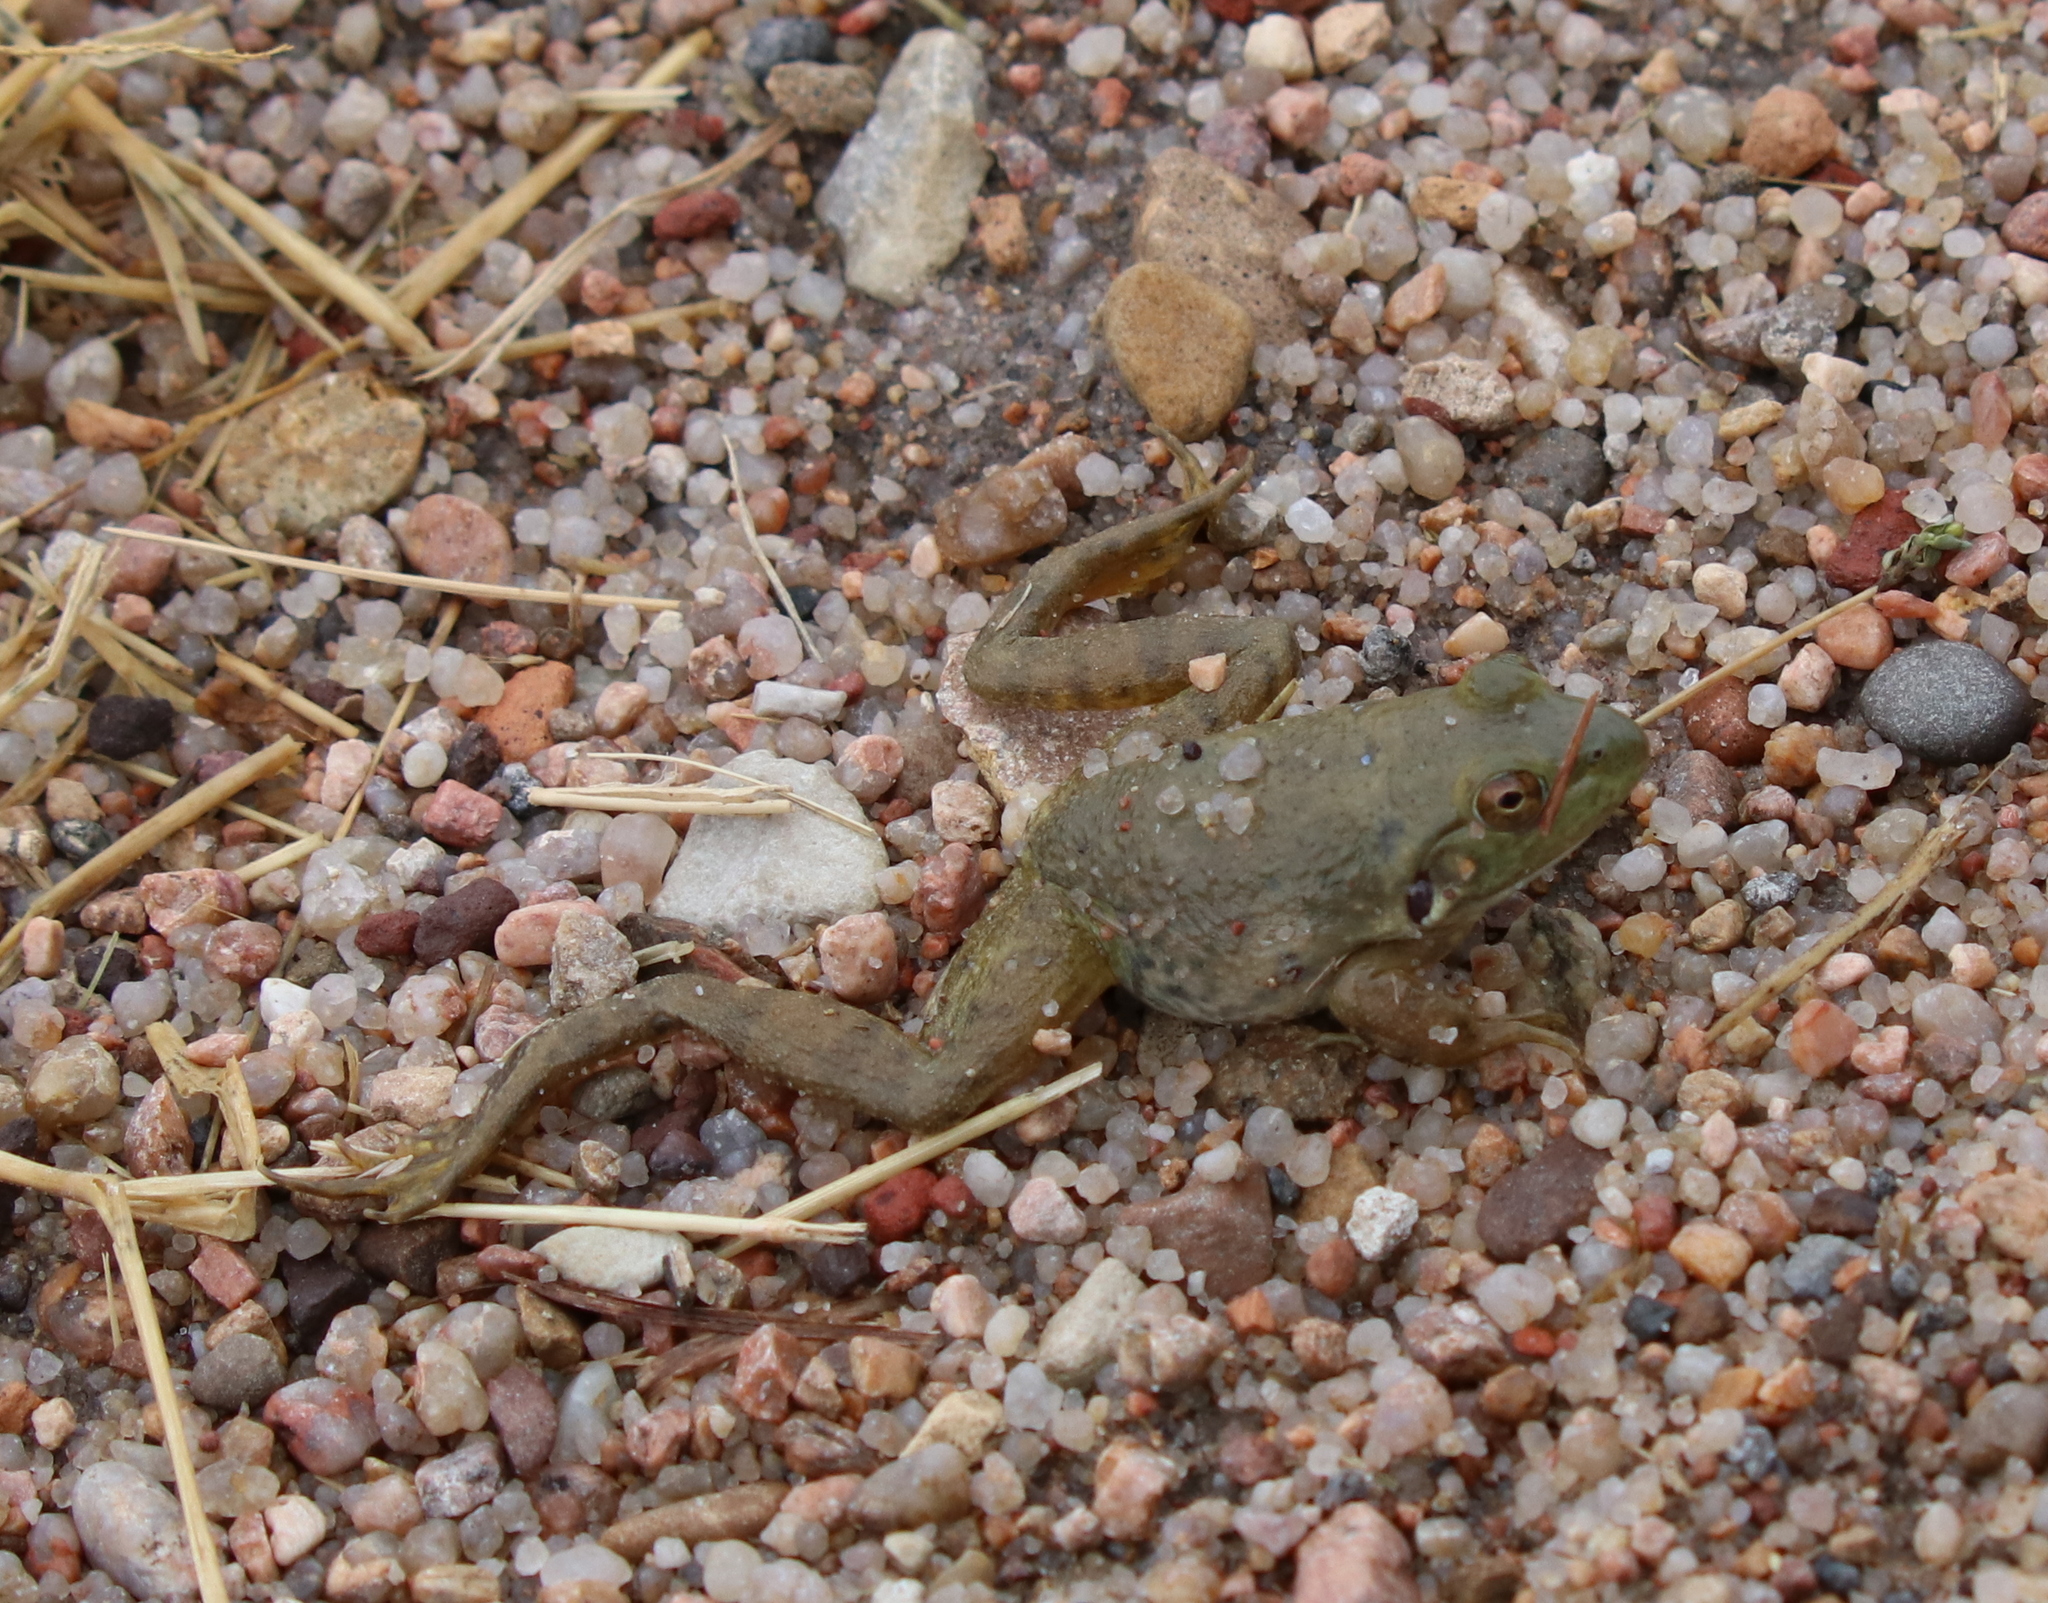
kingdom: Animalia
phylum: Chordata
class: Amphibia
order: Anura
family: Ranidae
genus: Lithobates
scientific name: Lithobates catesbeianus
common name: American bullfrog
